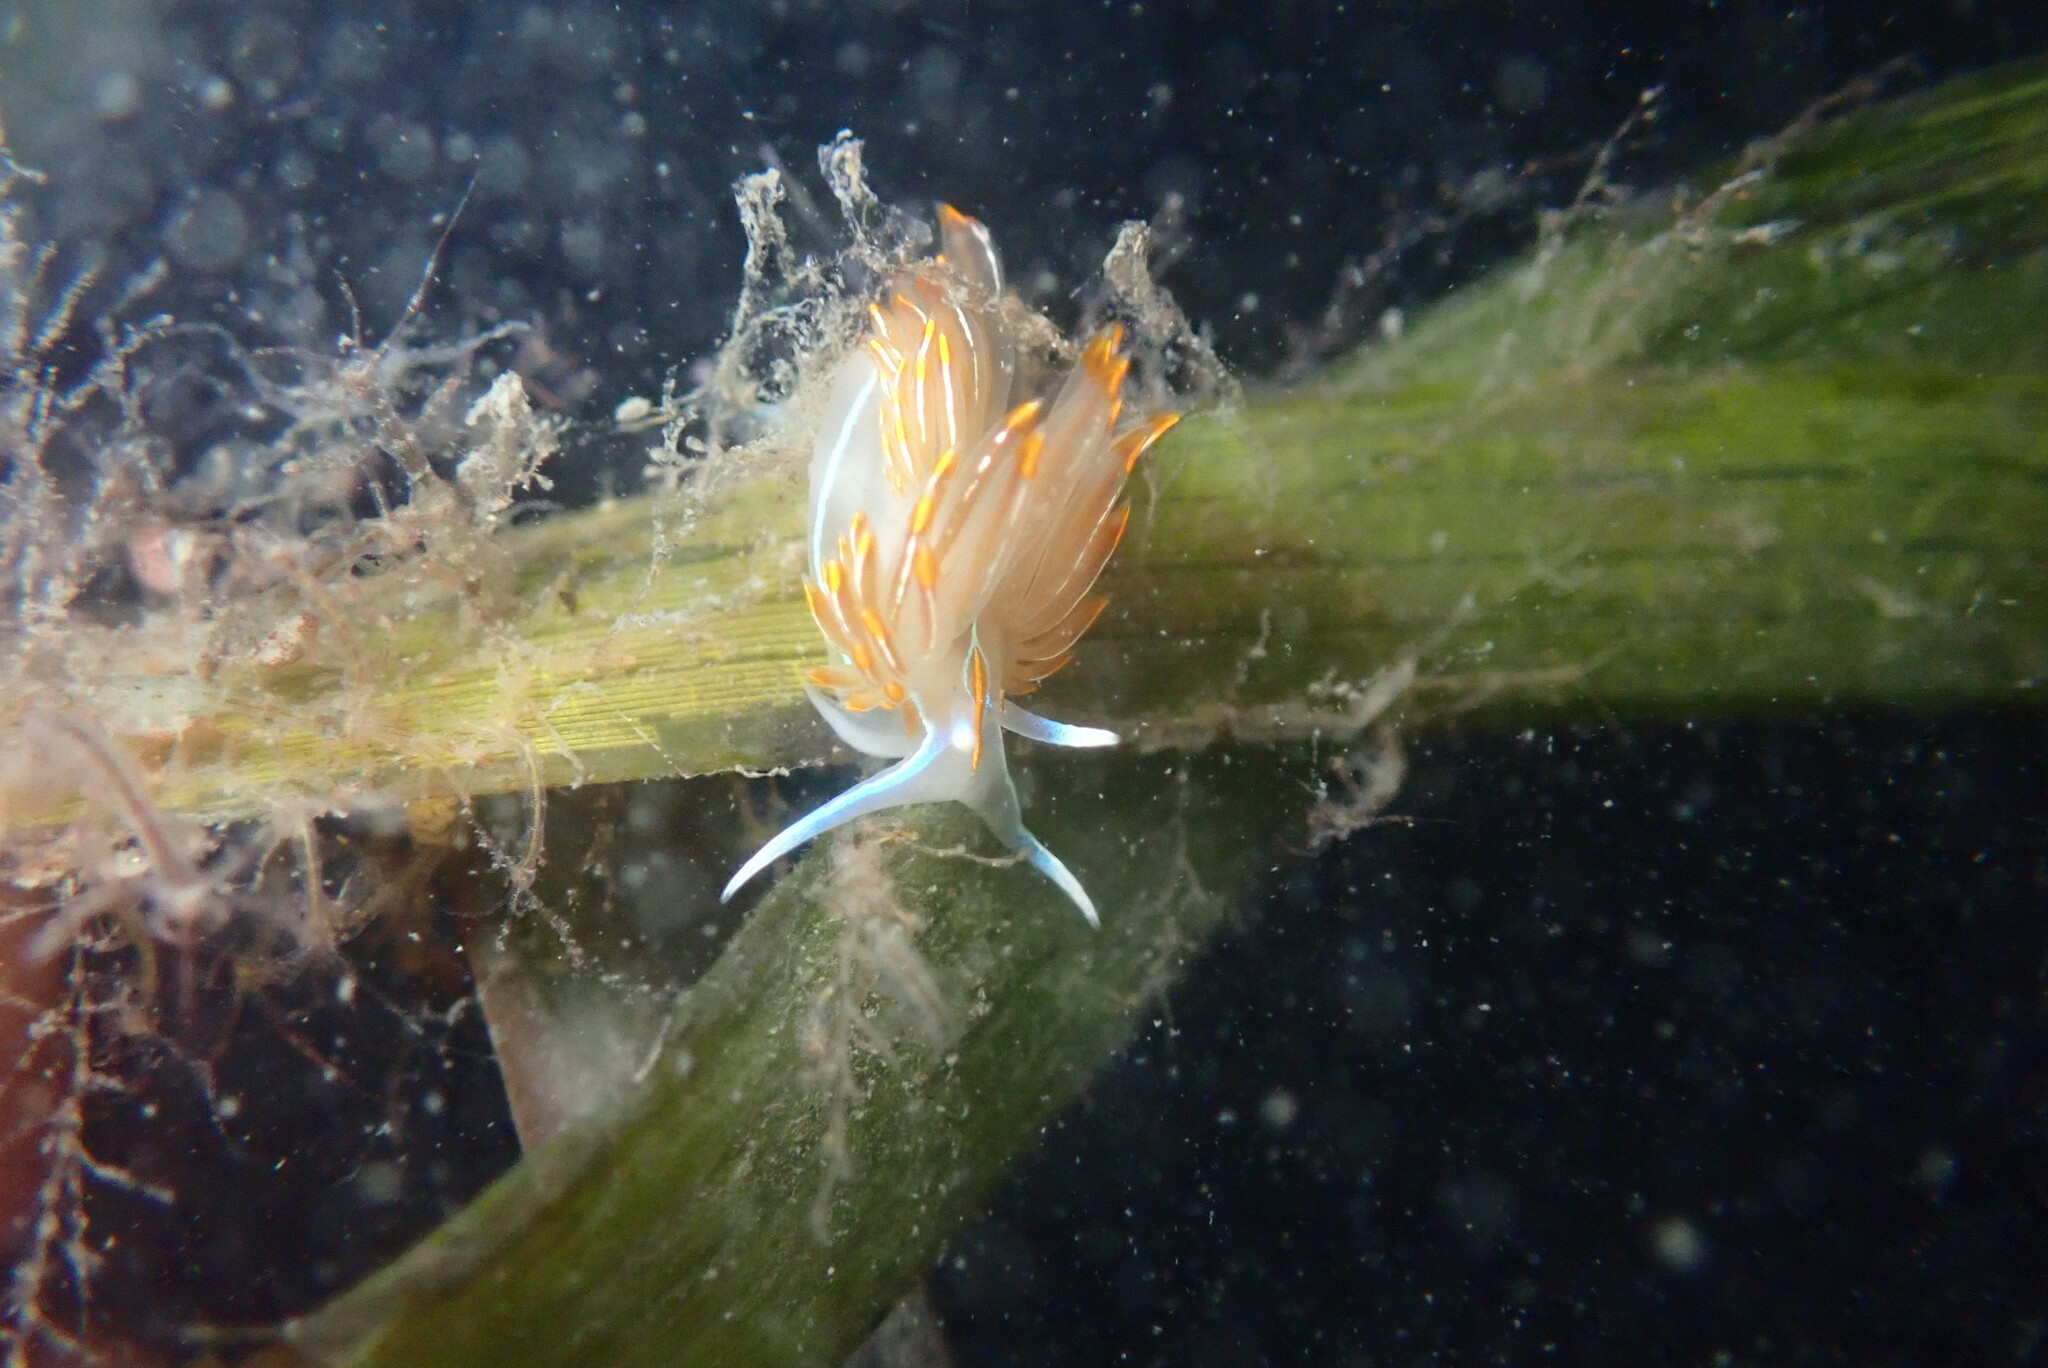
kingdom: Animalia
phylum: Mollusca
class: Gastropoda
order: Nudibranchia
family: Myrrhinidae
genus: Hermissenda
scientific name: Hermissenda crassicornis
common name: Hermissenda
